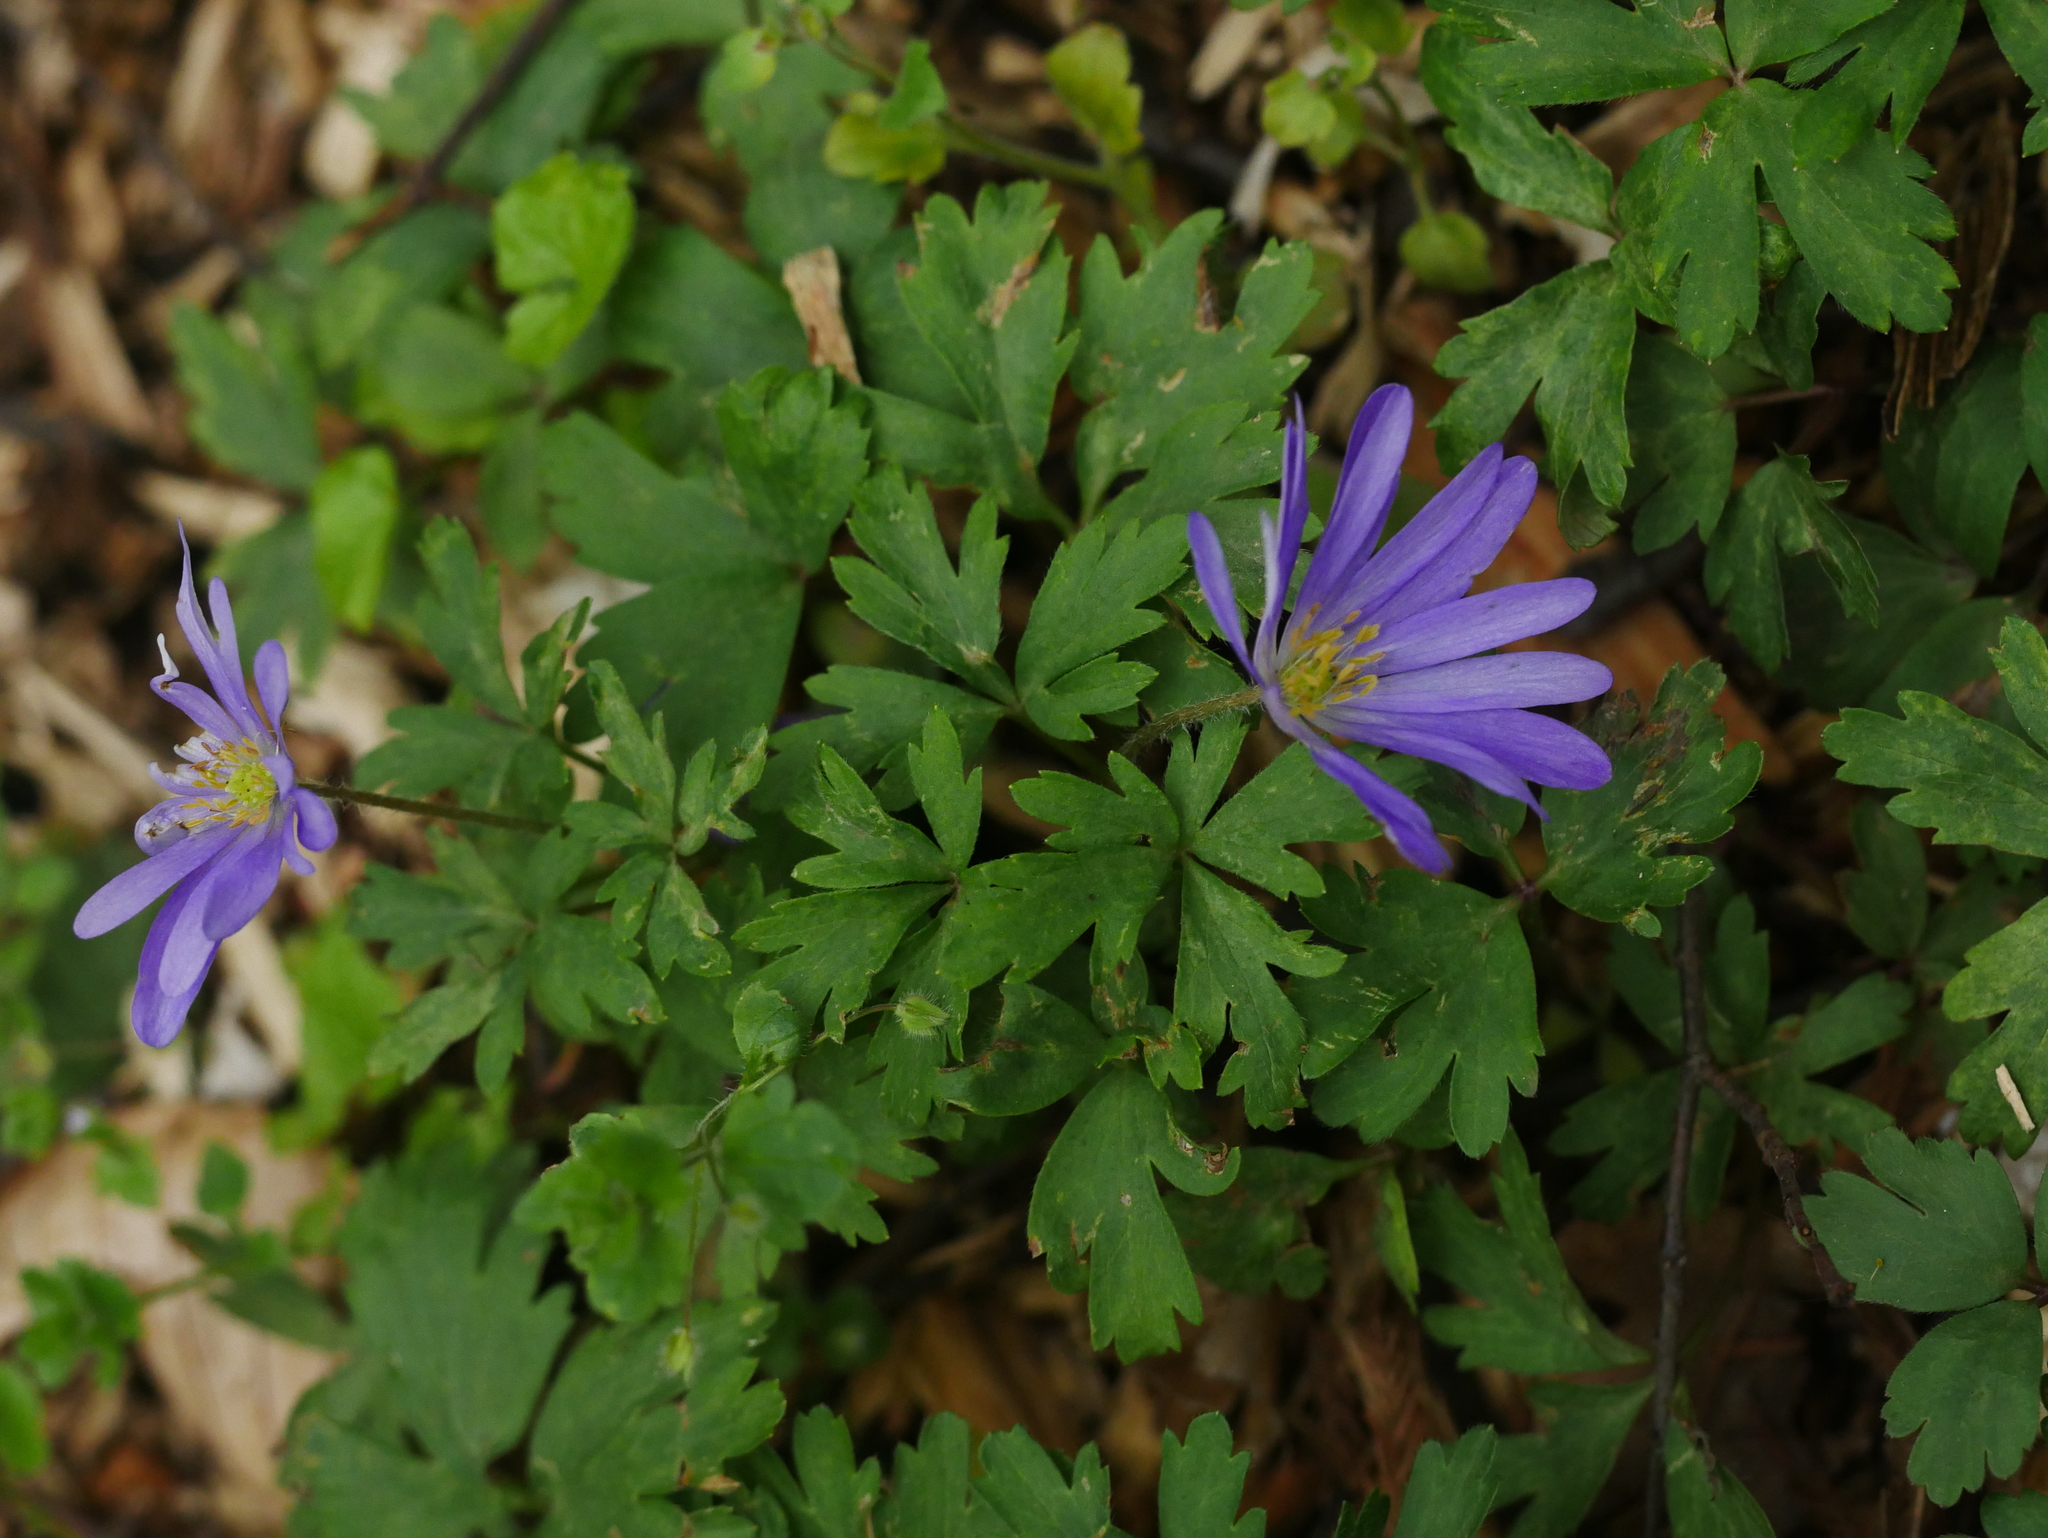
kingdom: Plantae
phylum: Tracheophyta
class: Magnoliopsida
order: Ranunculales
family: Ranunculaceae
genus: Anemone
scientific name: Anemone blanda
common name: Balkan anemone
